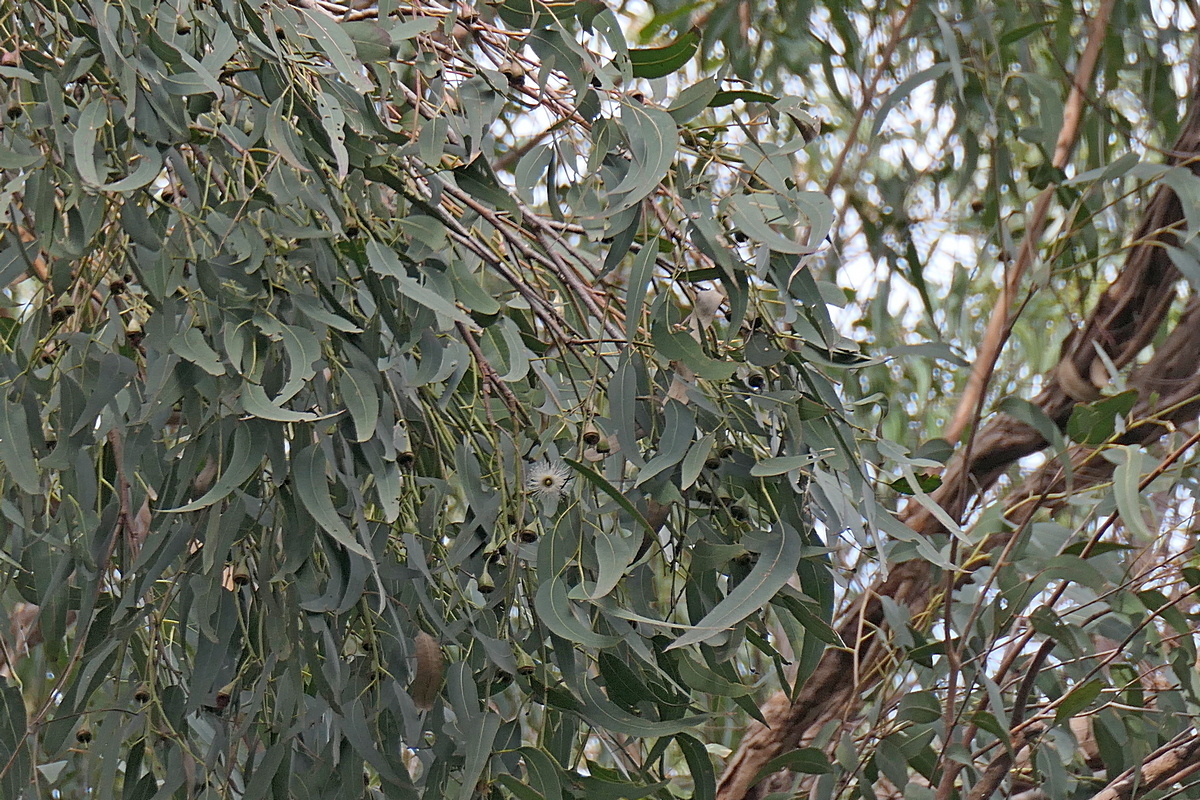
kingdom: Plantae
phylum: Tracheophyta
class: Magnoliopsida
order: Myrtales
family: Myrtaceae
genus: Eucalyptus
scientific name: Eucalyptus longifolia
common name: Woollybutt
